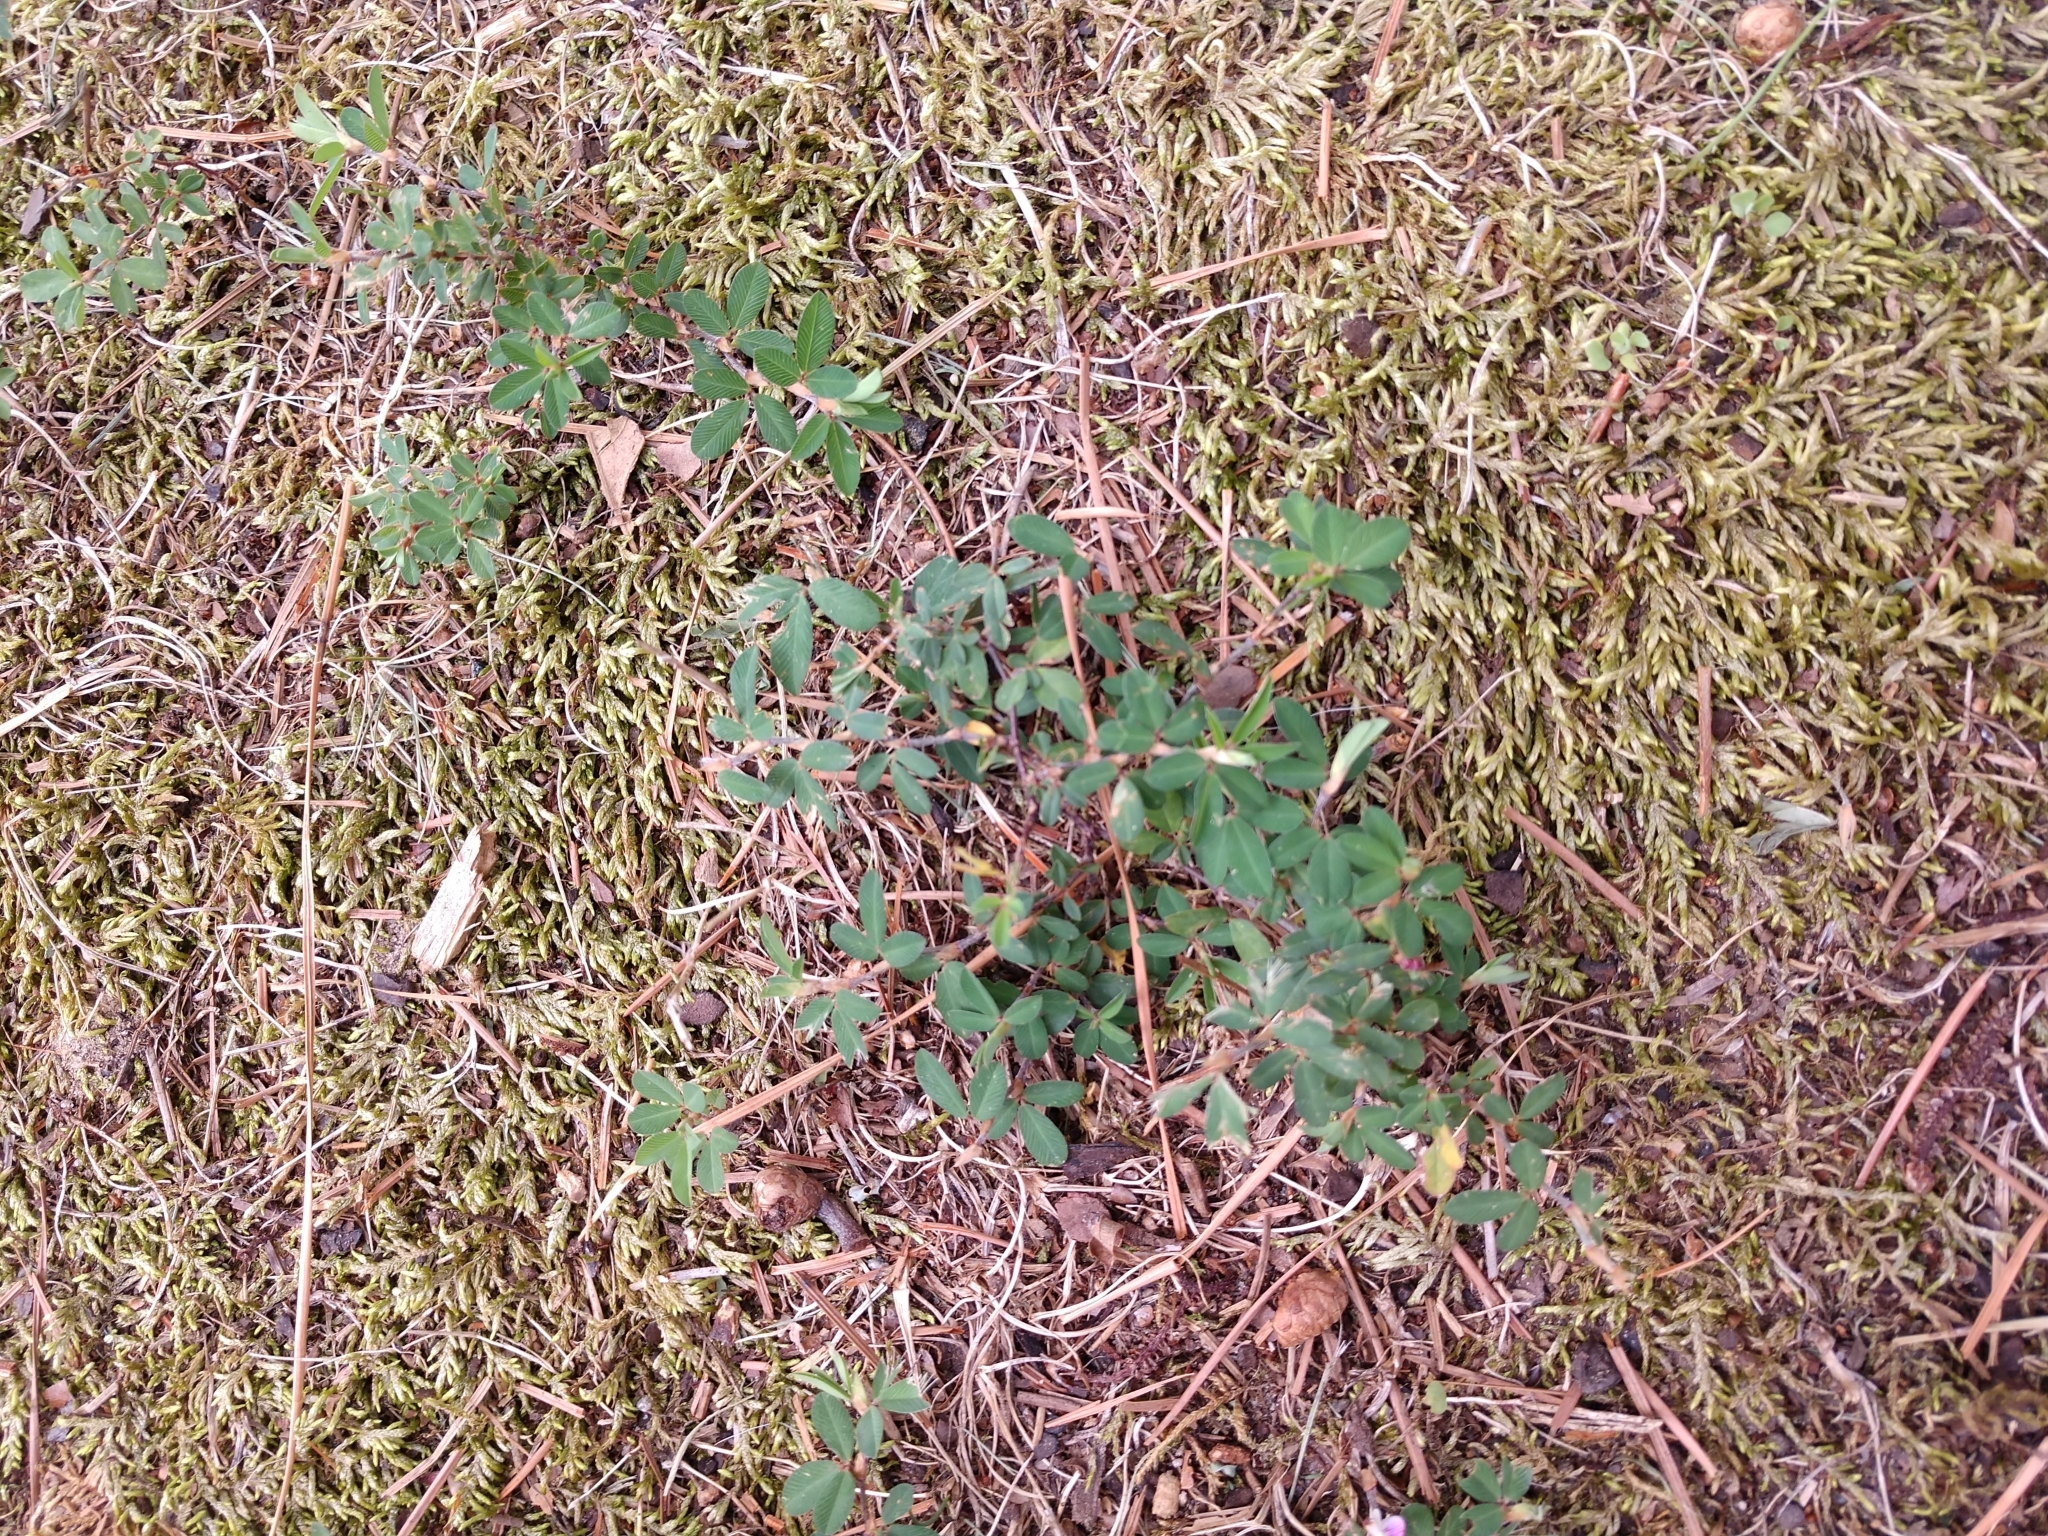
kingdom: Plantae
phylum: Tracheophyta
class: Magnoliopsida
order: Fabales
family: Fabaceae
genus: Kummerowia
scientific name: Kummerowia striata
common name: Japanese clover
